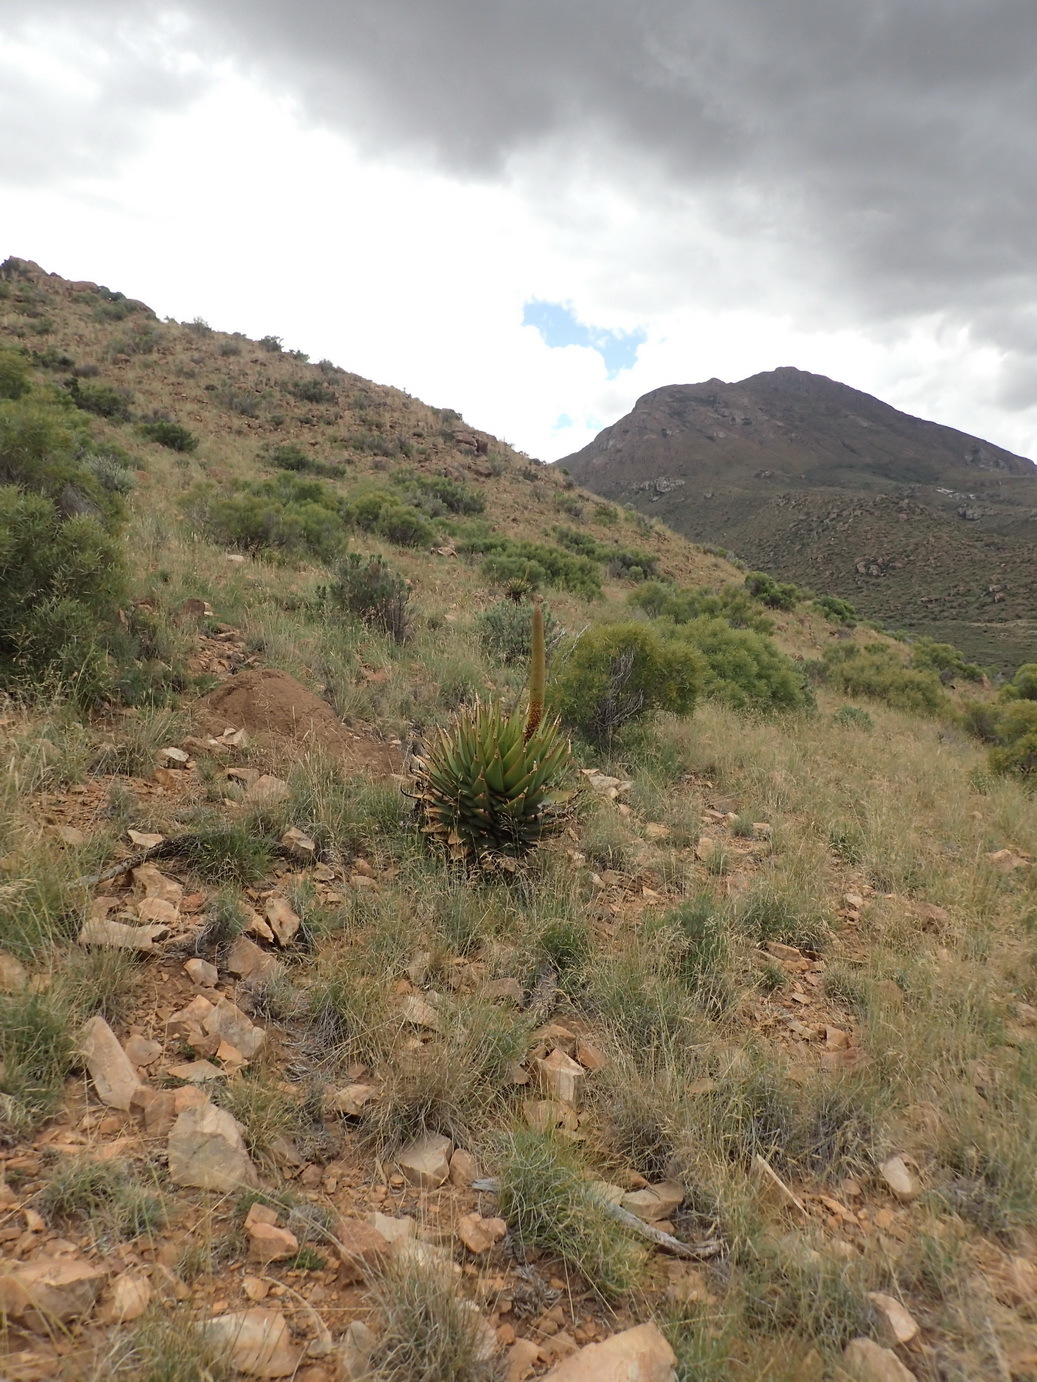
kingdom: Plantae
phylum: Tracheophyta
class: Liliopsida
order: Asparagales
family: Asphodelaceae
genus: Aloe
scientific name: Aloe broomii
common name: Berg alwyn
